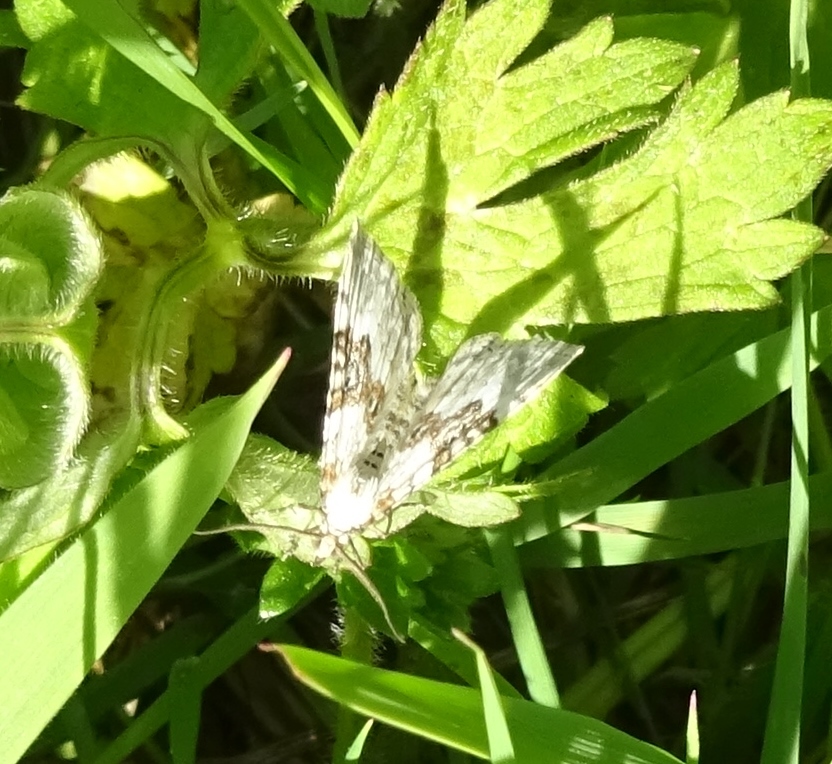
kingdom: Animalia
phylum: Arthropoda
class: Insecta
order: Lepidoptera
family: Geometridae
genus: Xanthorhoe
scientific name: Xanthorhoe montanata
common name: Silver-ground carpet
